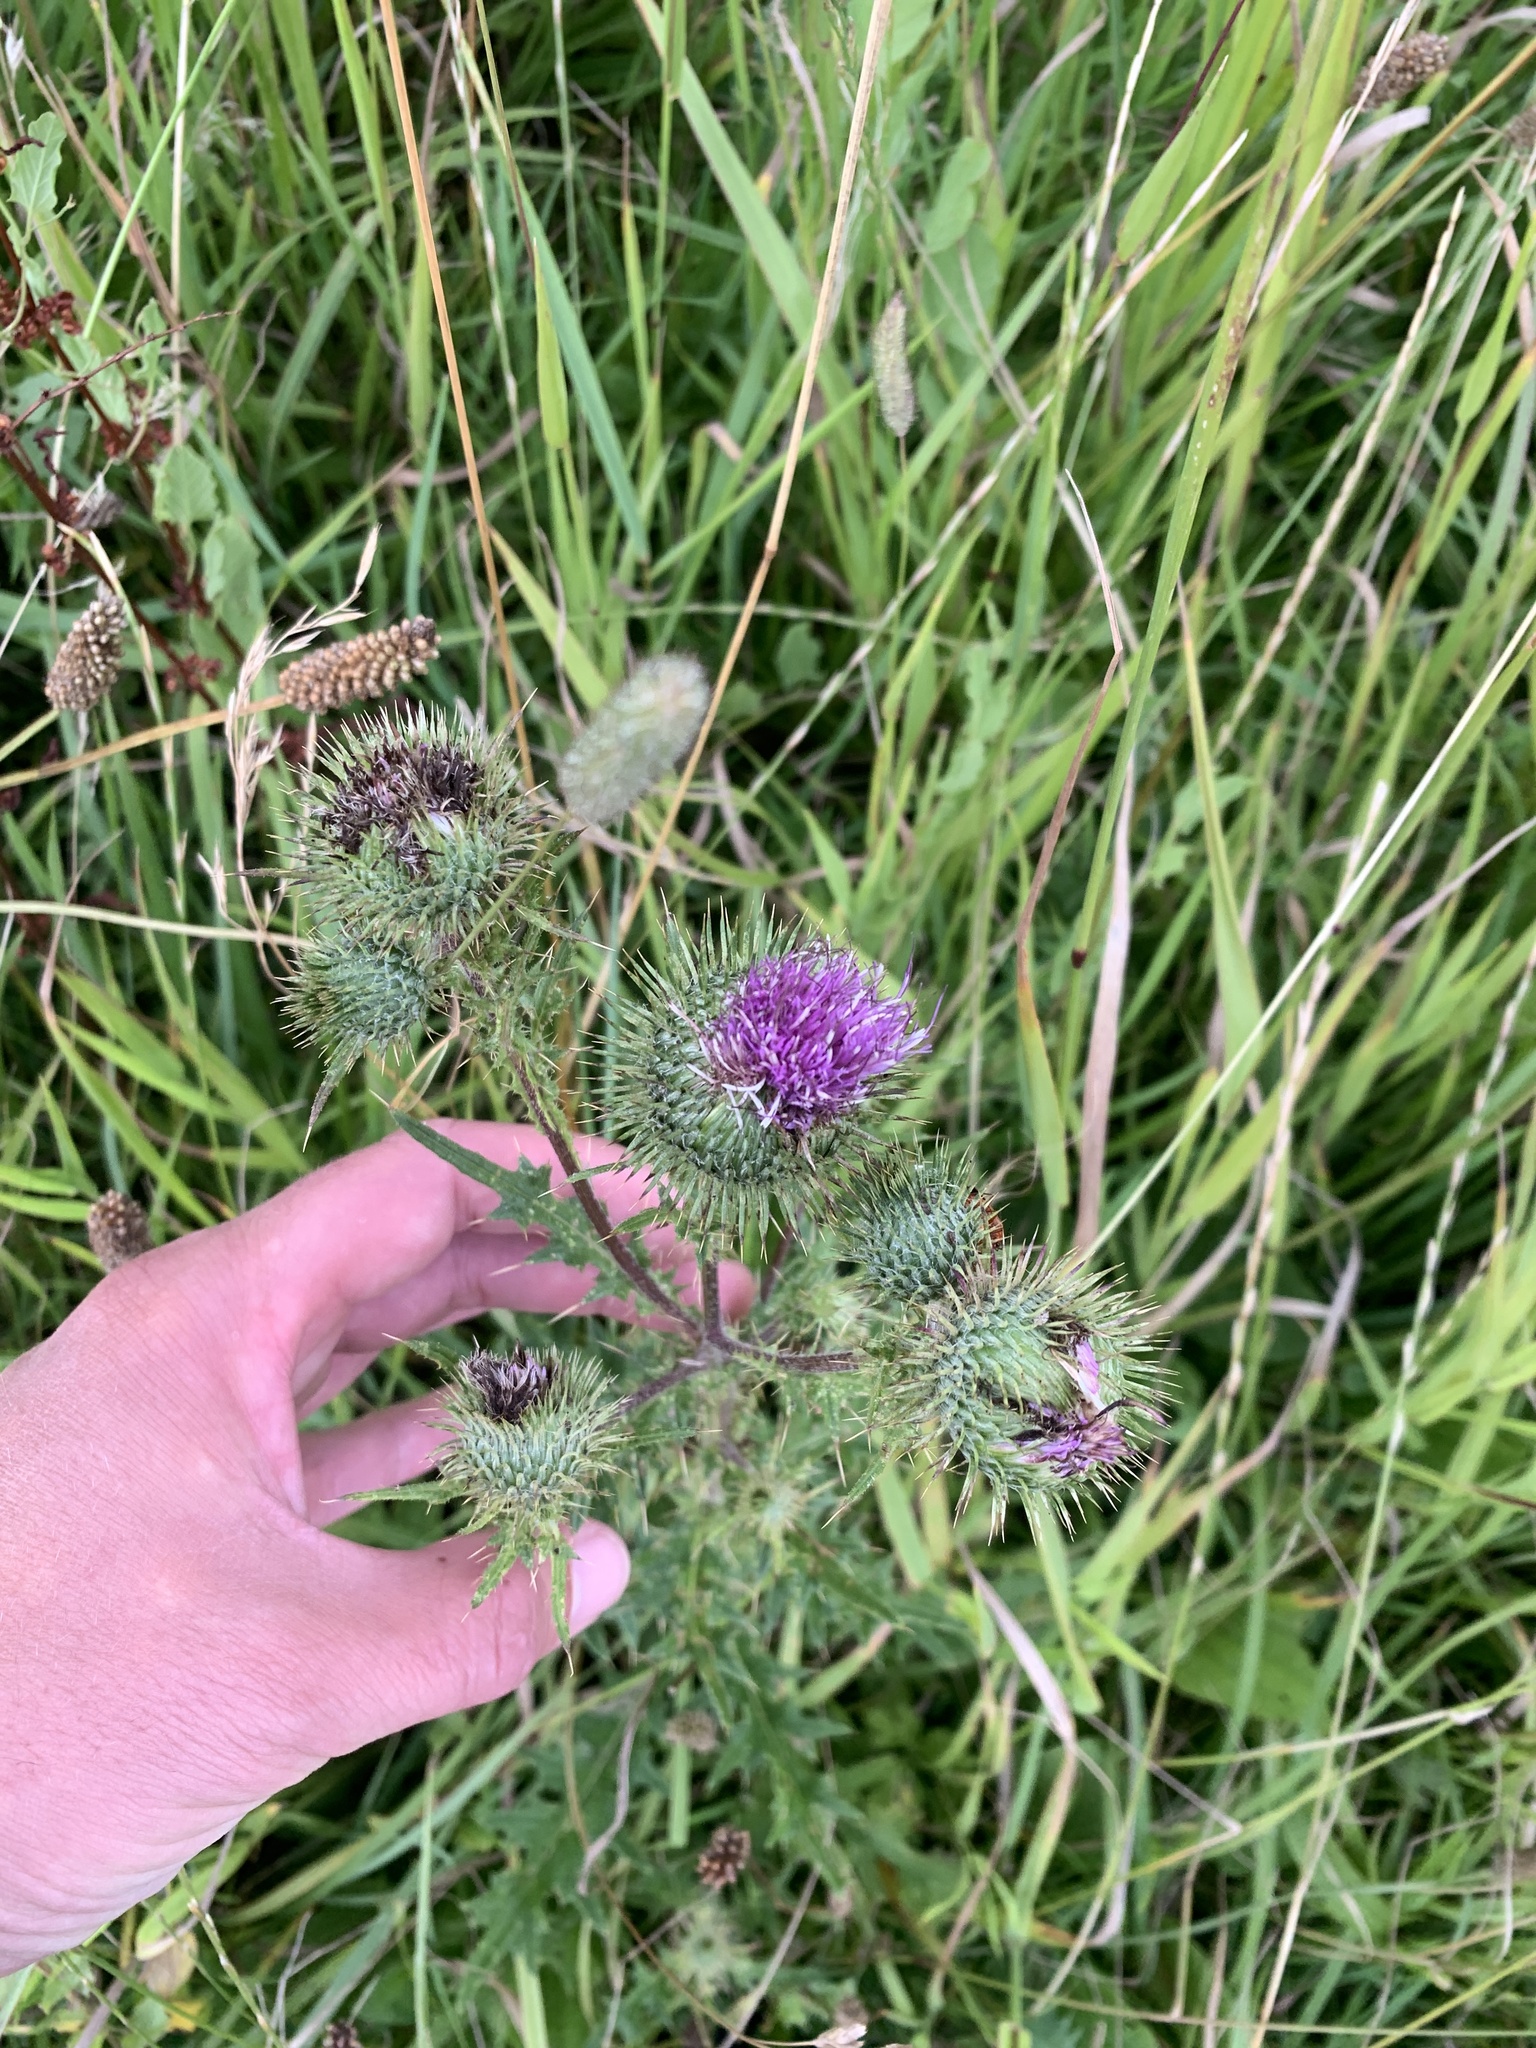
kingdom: Plantae
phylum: Tracheophyta
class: Magnoliopsida
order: Asterales
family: Asteraceae
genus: Cirsium
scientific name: Cirsium vulgare
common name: Bull thistle
